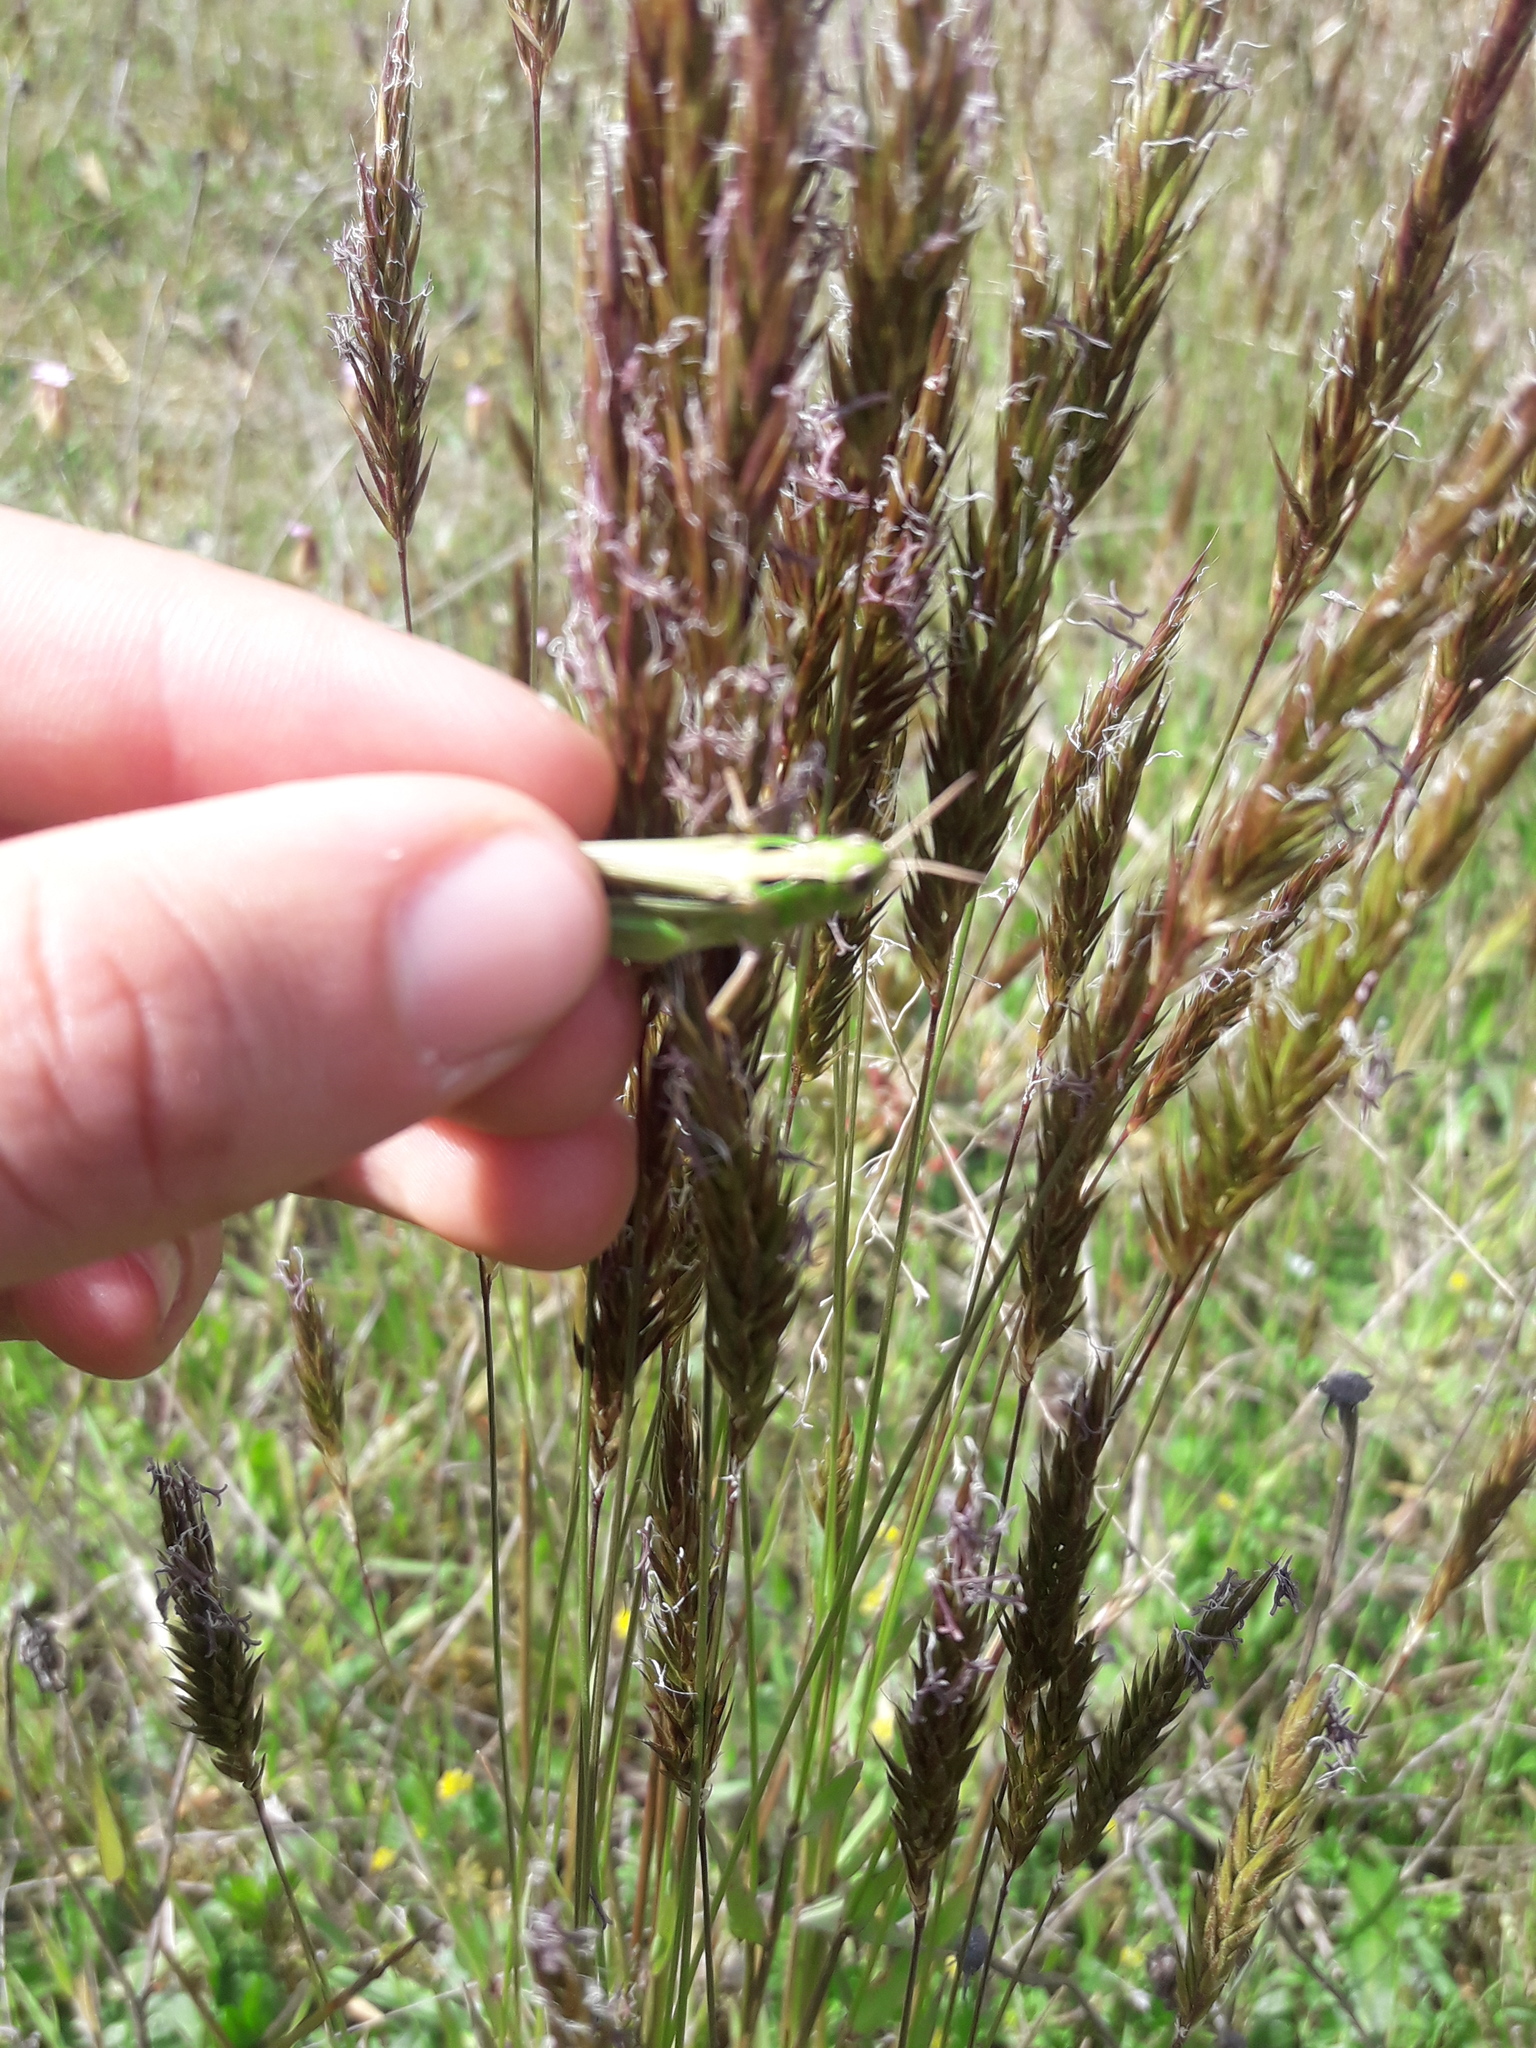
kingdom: Animalia
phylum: Arthropoda
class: Insecta
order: Orthoptera
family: Acrididae
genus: Schizobothrus
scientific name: Schizobothrus flavovittatus
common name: Disappearing grasshopper
